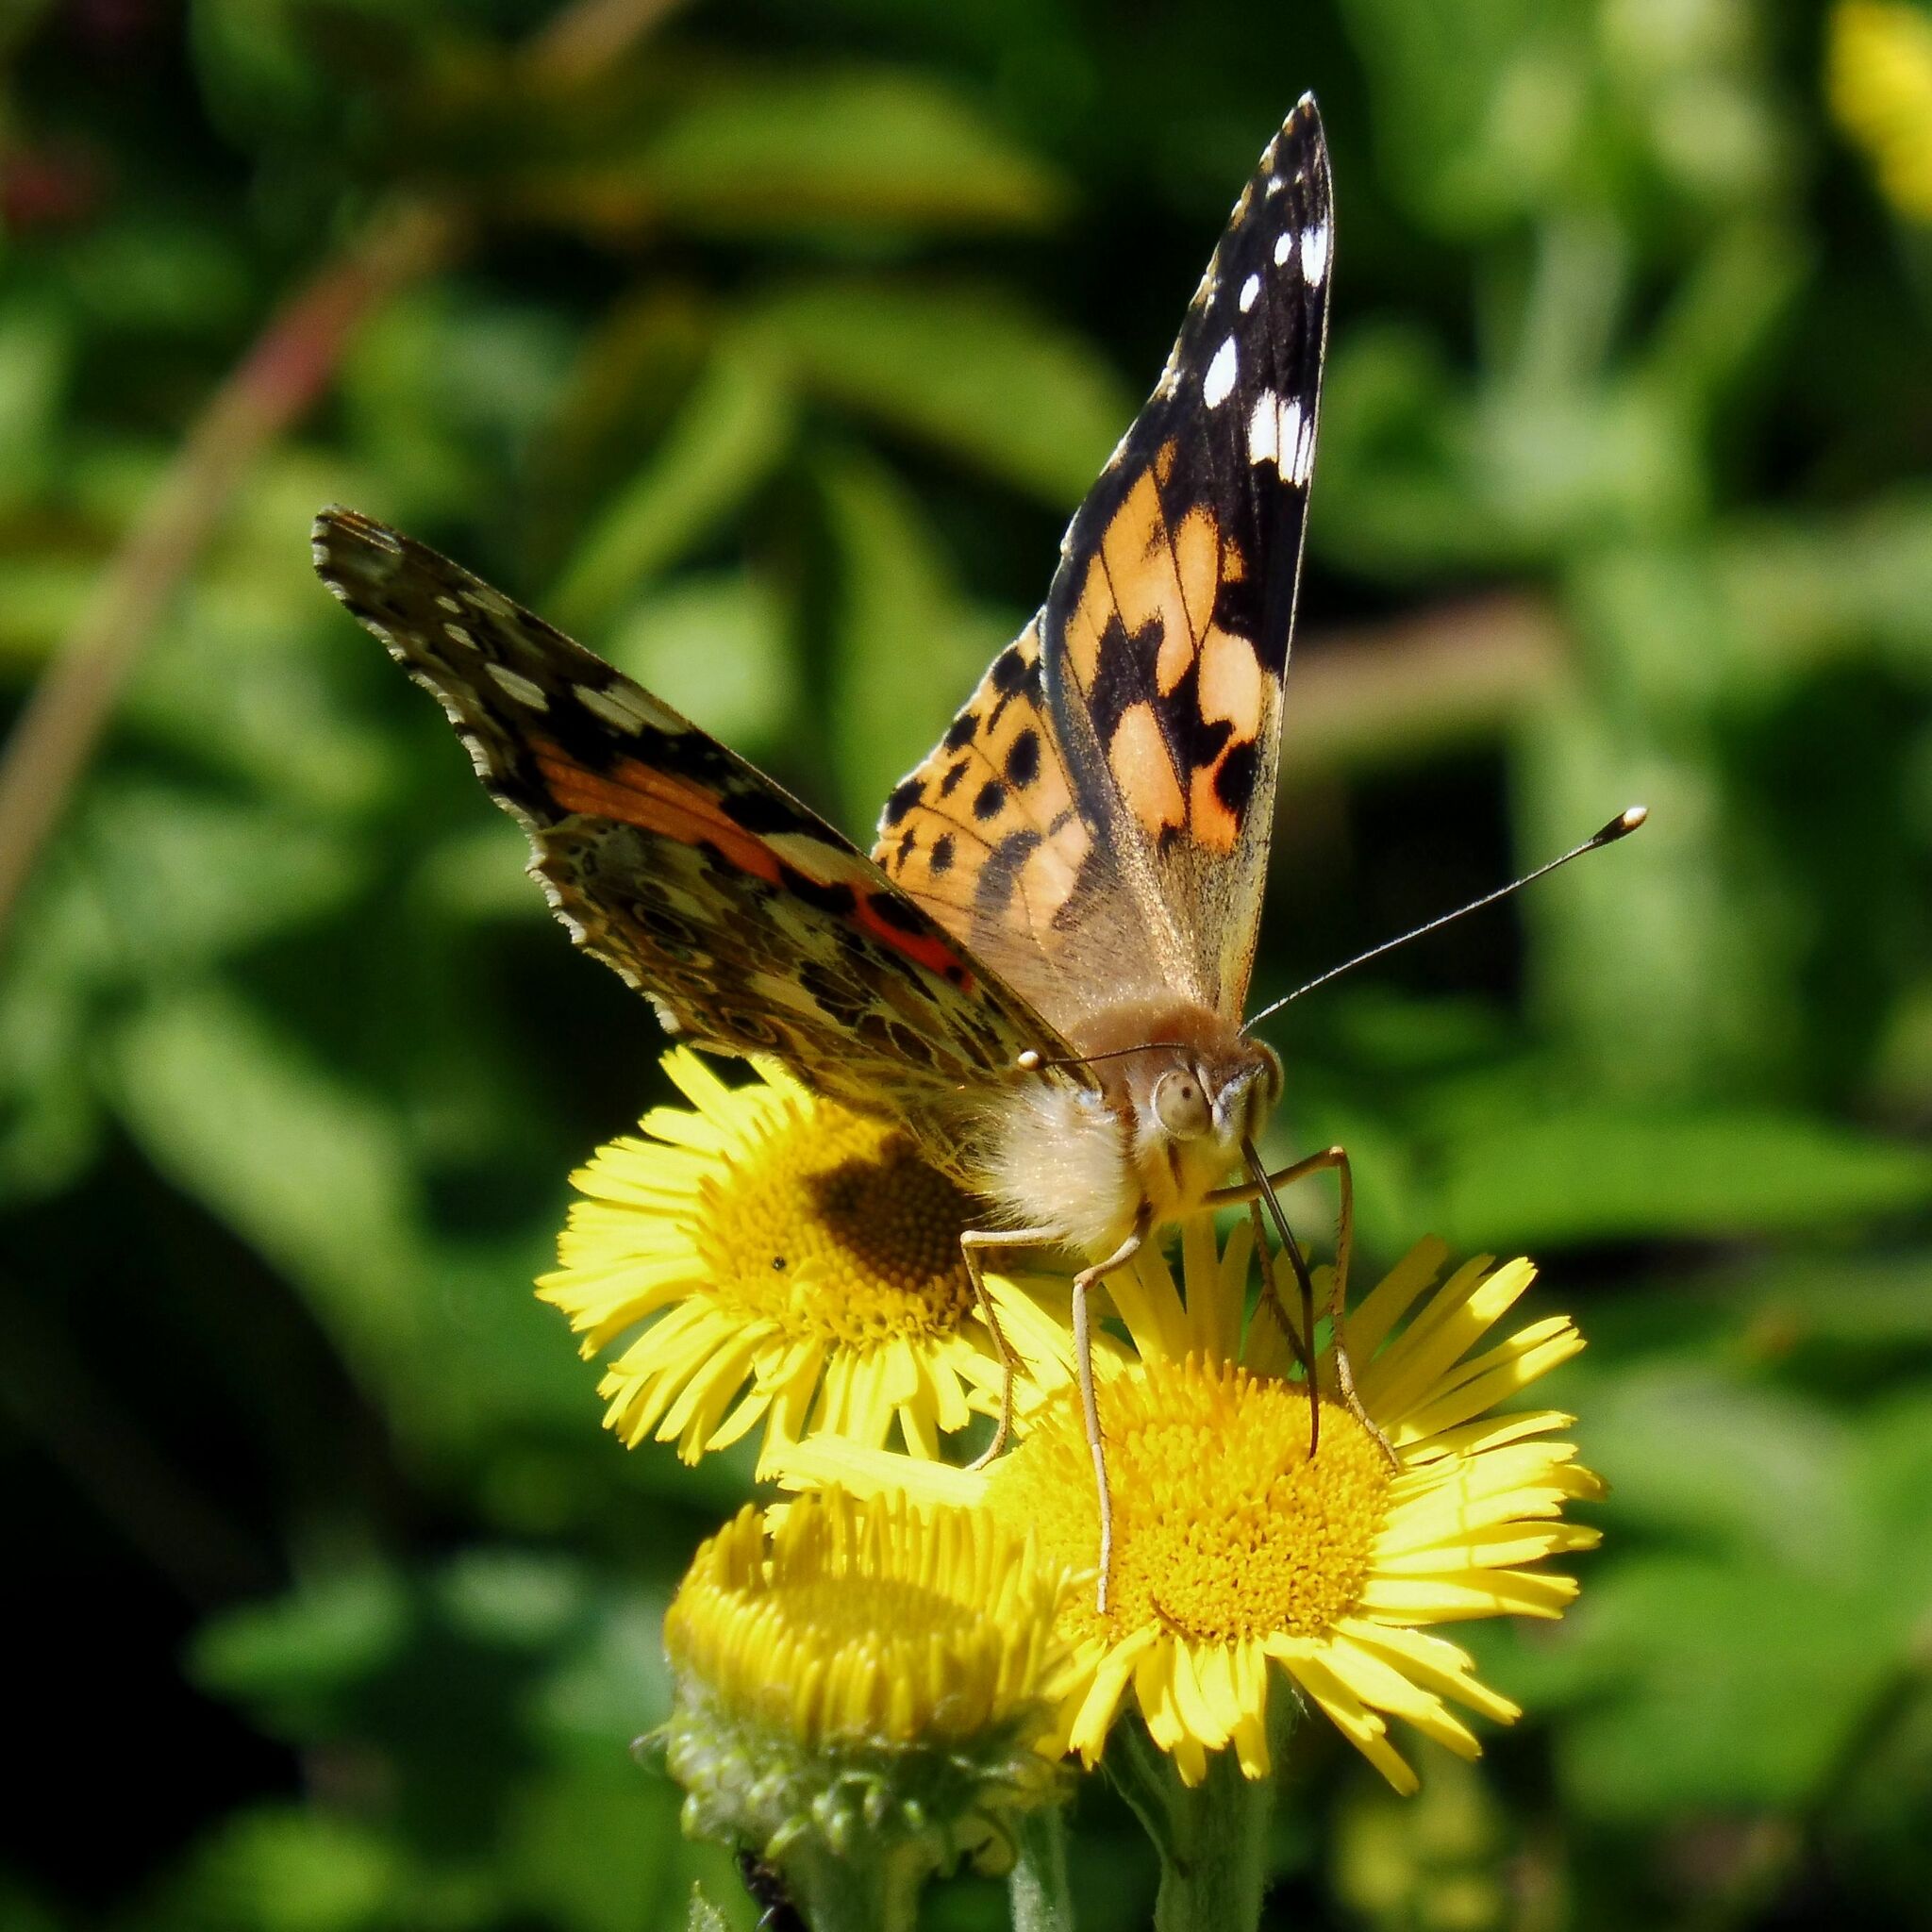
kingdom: Animalia
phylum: Arthropoda
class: Insecta
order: Lepidoptera
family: Nymphalidae
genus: Vanessa
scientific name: Vanessa cardui
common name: Painted lady
